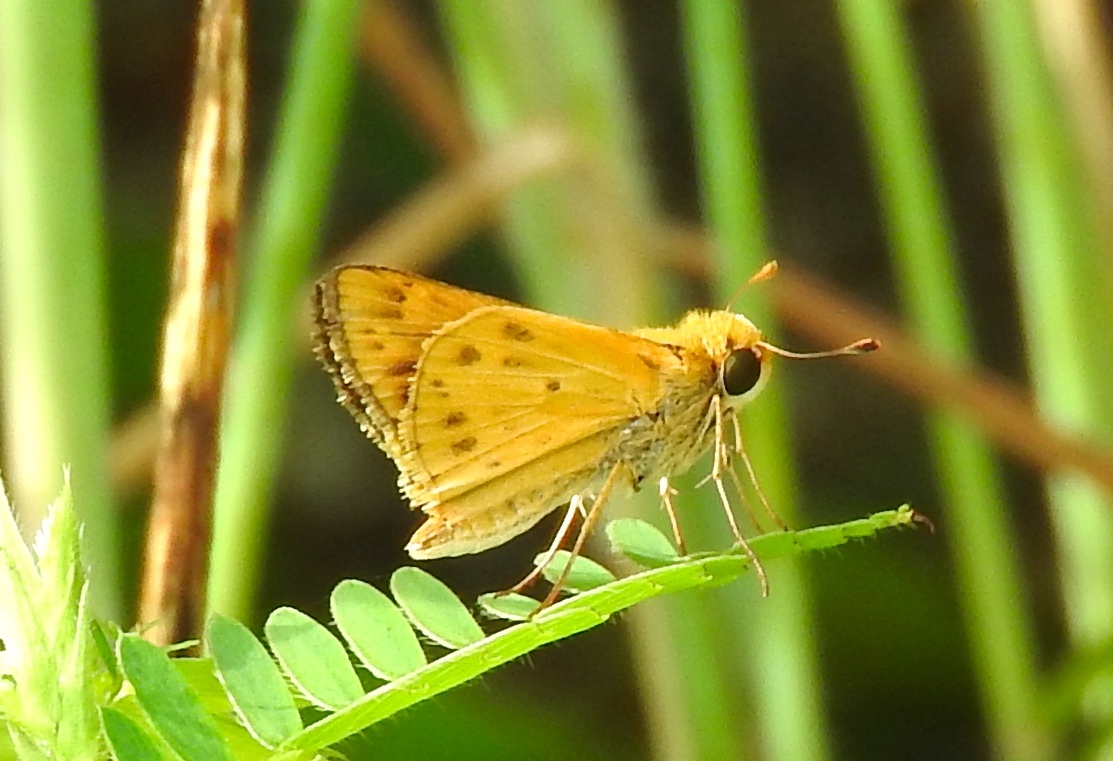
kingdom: Animalia
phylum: Arthropoda
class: Insecta
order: Lepidoptera
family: Hesperiidae
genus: Hylephila
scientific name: Hylephila phyleus
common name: Fiery skipper
